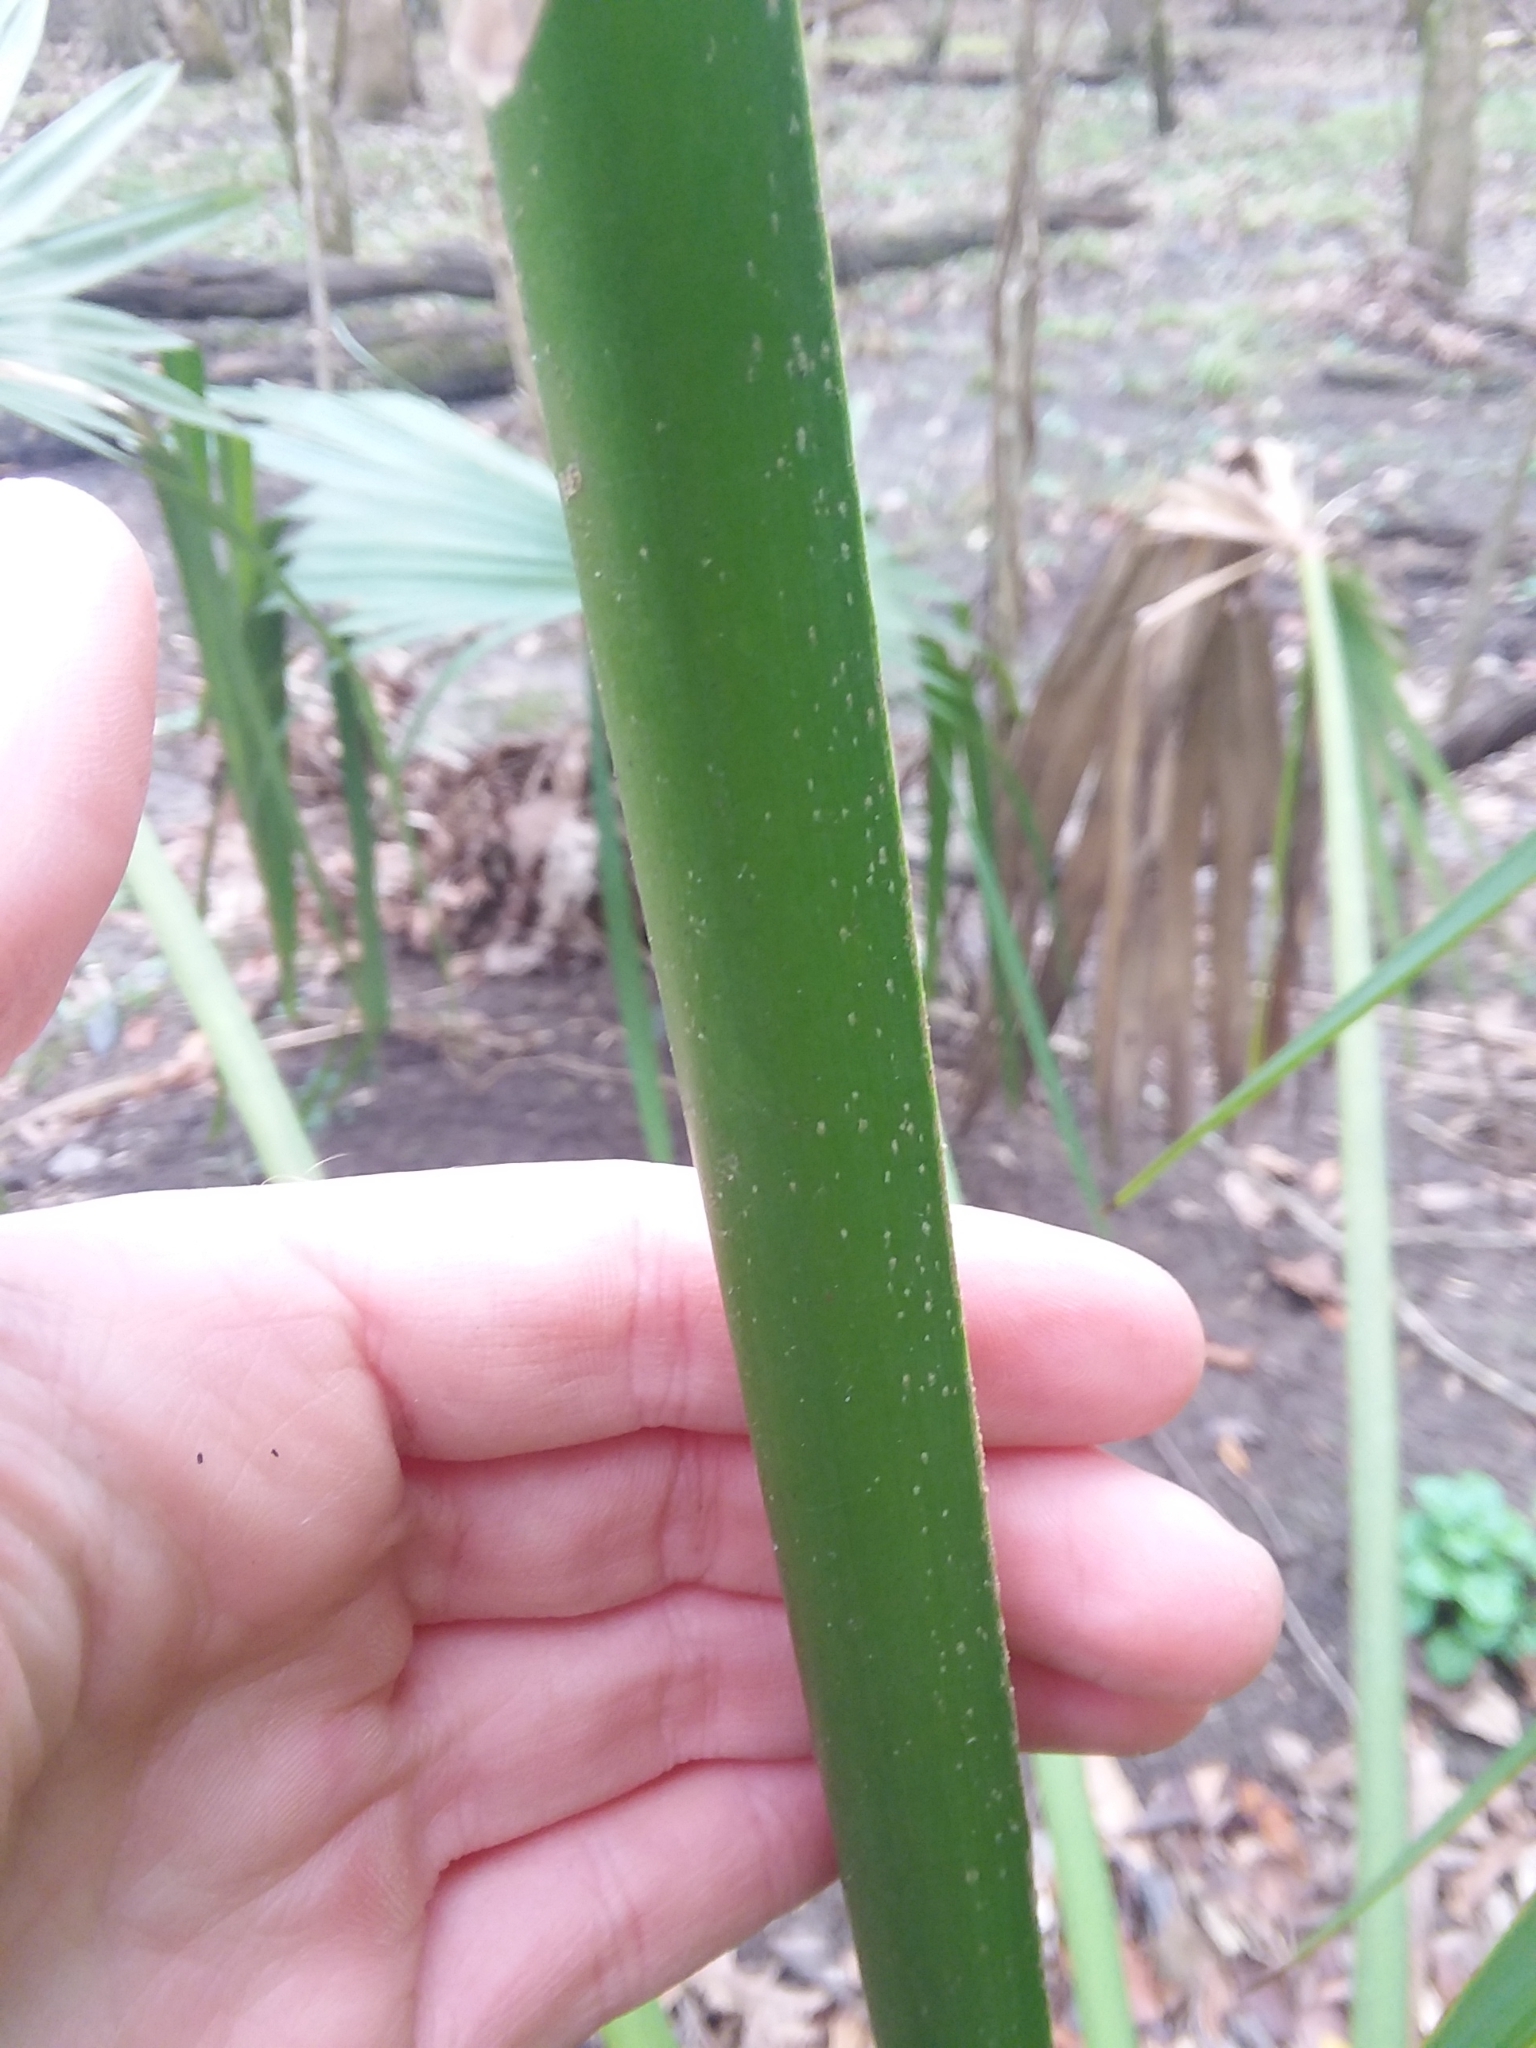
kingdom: Plantae
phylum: Tracheophyta
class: Liliopsida
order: Arecales
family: Arecaceae
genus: Sabal
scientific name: Sabal minor
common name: Dwarf palmetto
